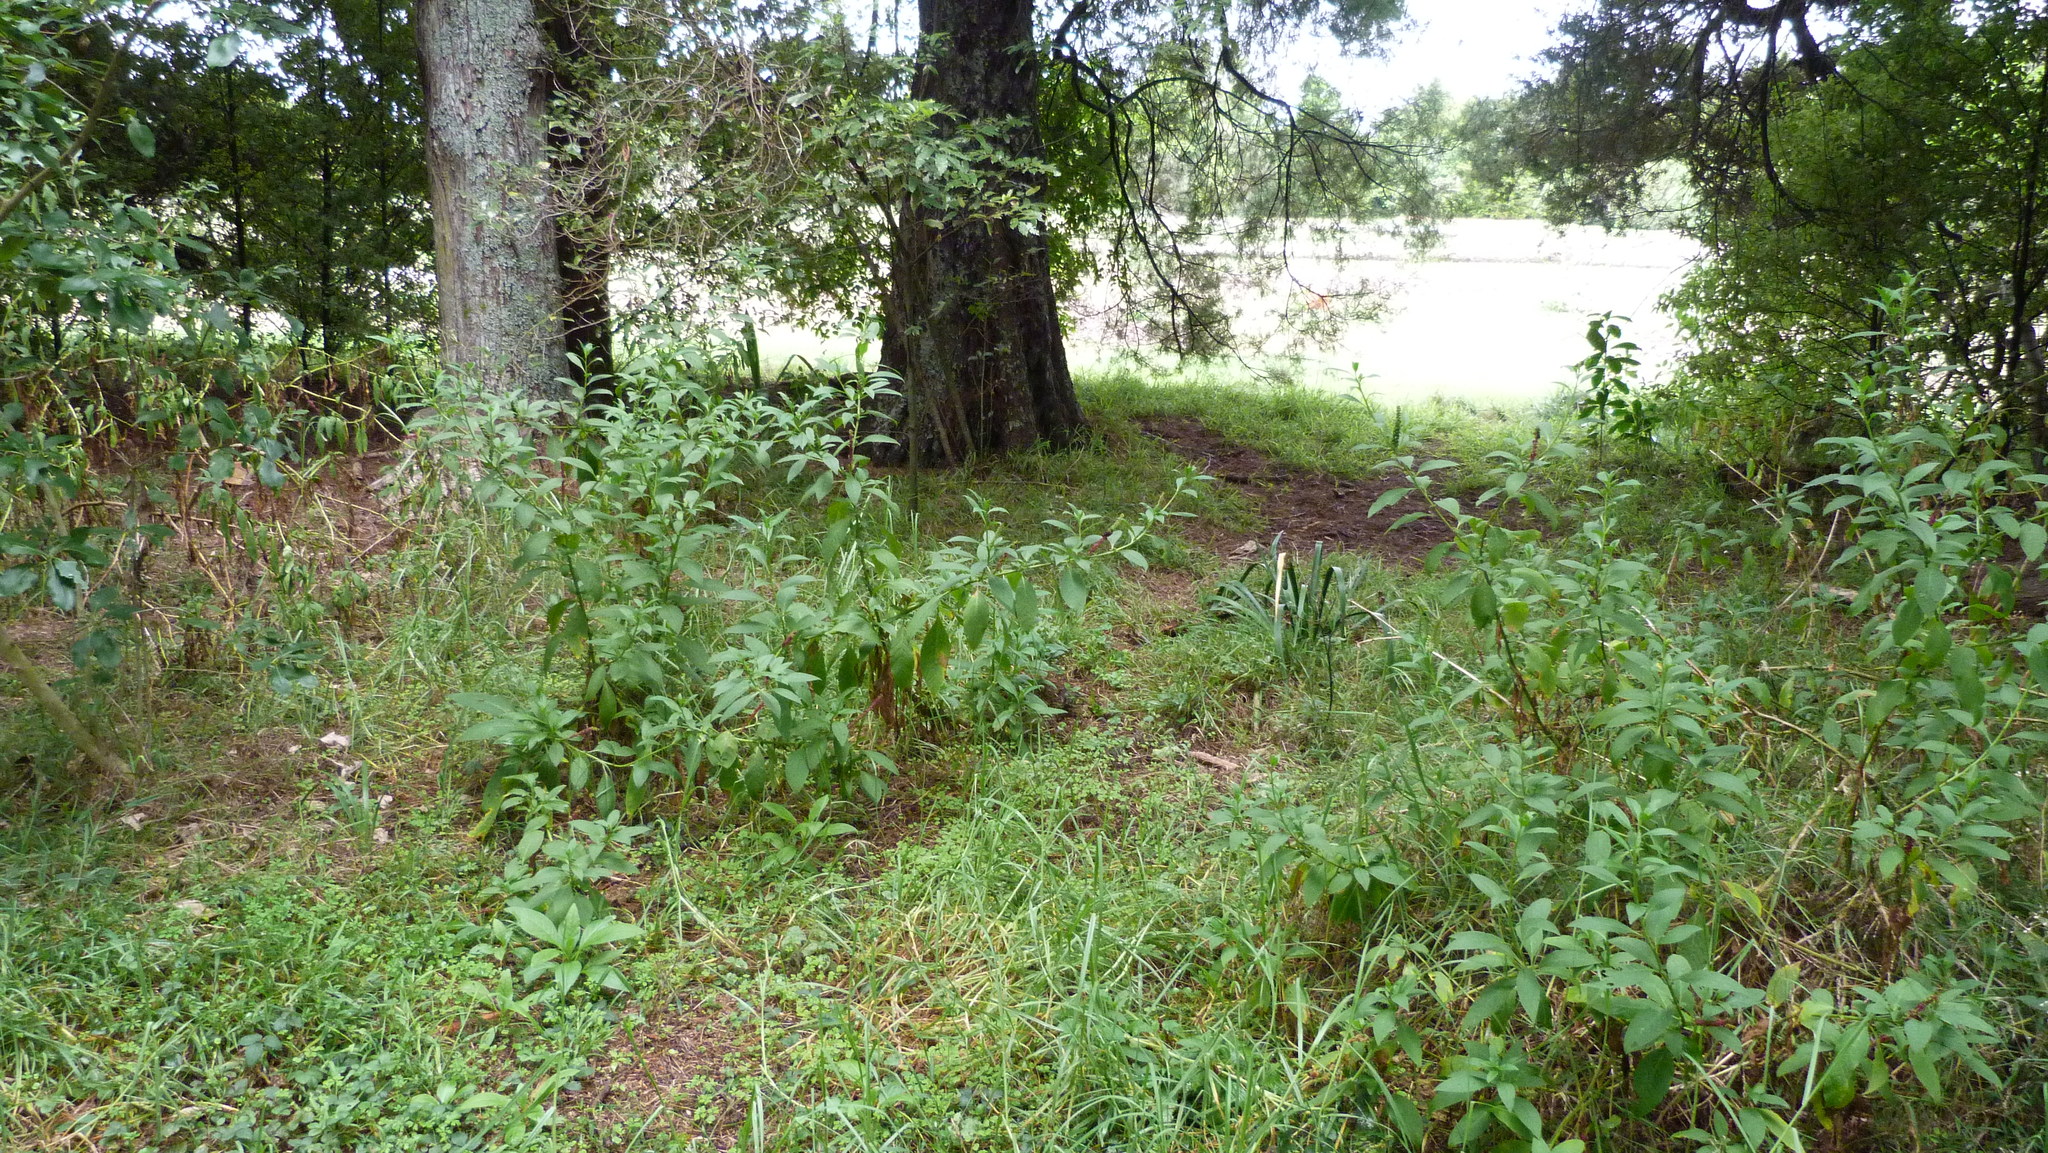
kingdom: Plantae
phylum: Tracheophyta
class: Liliopsida
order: Poales
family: Poaceae
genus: Ehrharta
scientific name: Ehrharta erecta
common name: Panic veldtgrass
